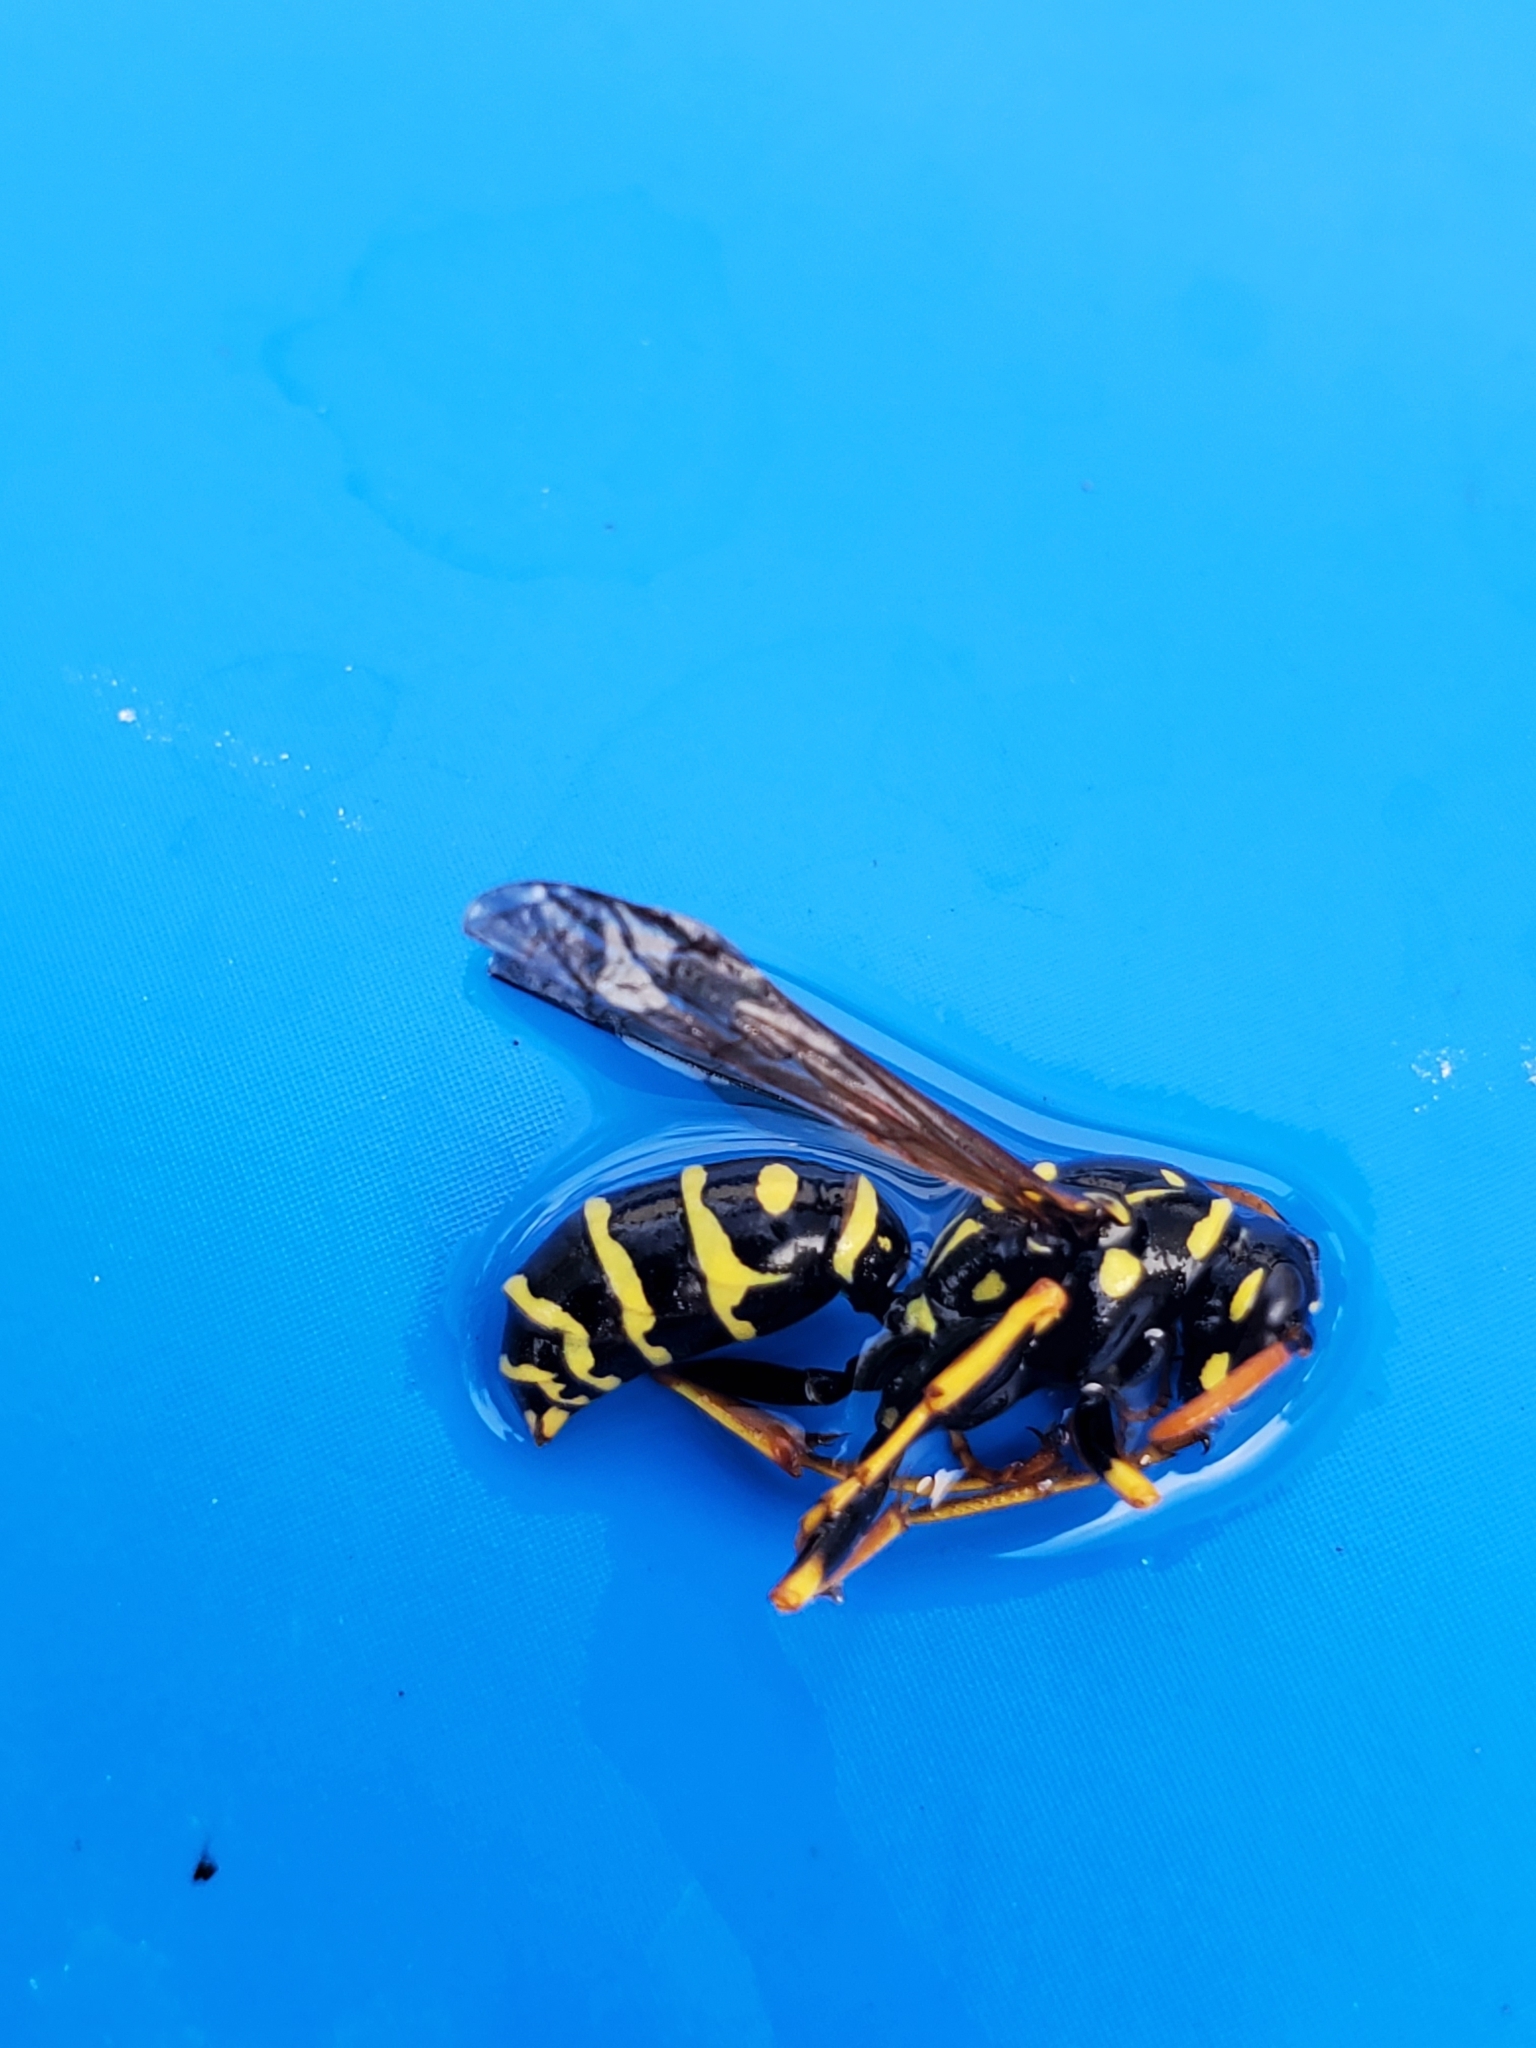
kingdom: Animalia
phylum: Arthropoda
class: Insecta
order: Hymenoptera
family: Eumenidae
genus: Polistes
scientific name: Polistes dominula
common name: Paper wasp
